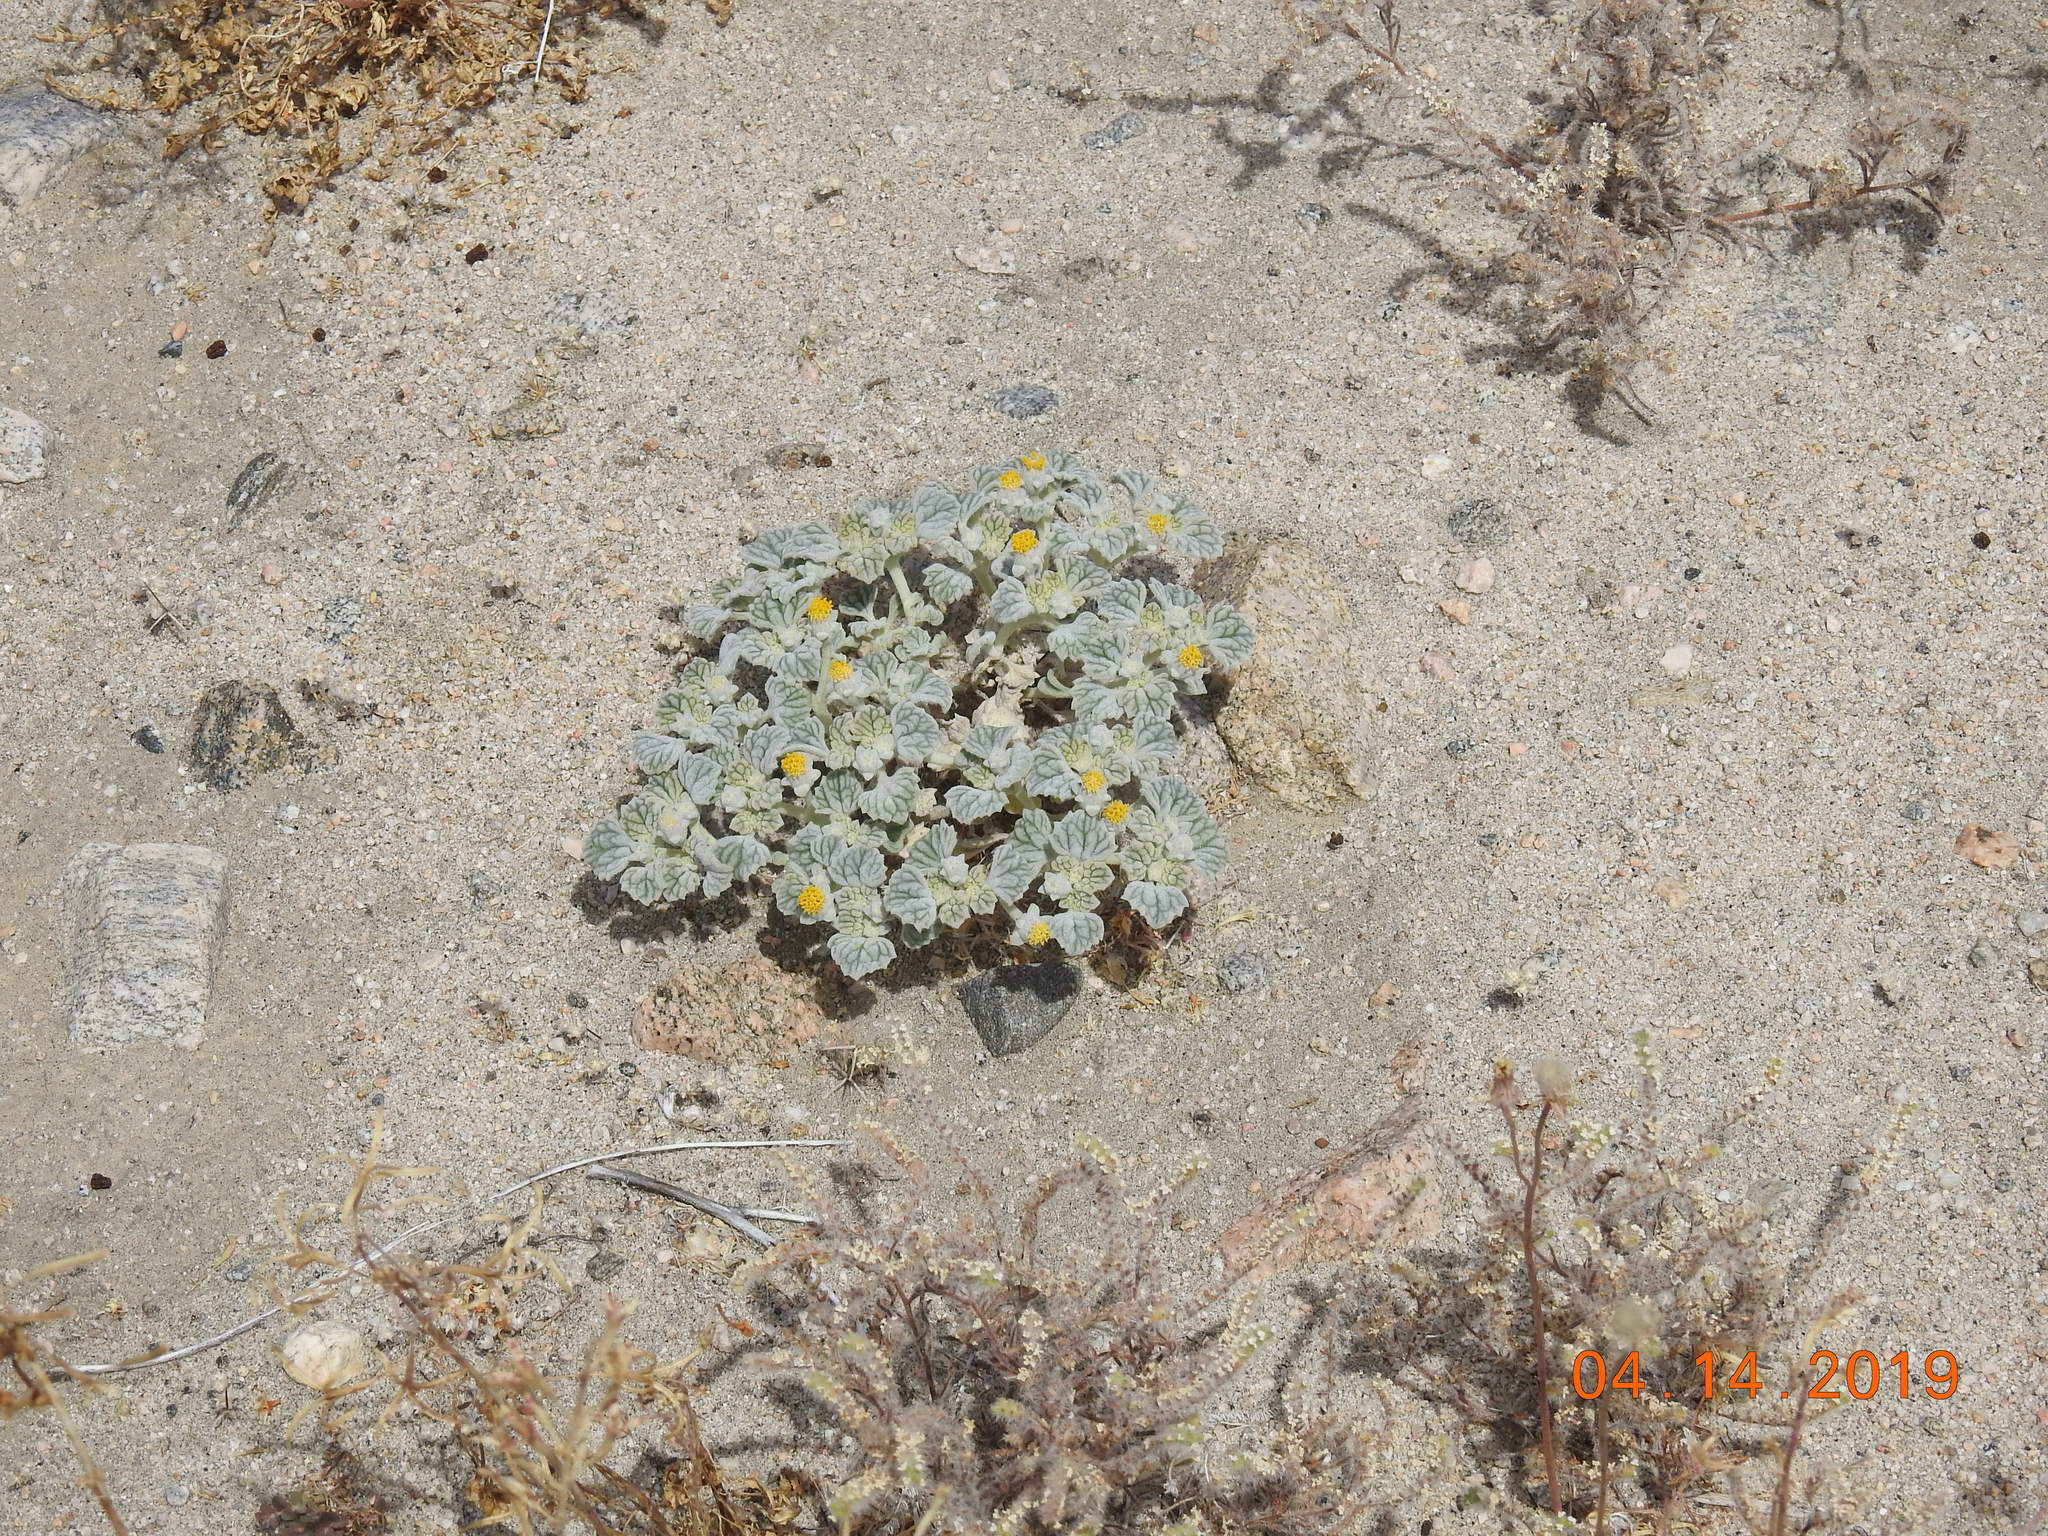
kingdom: Plantae
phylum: Tracheophyta
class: Magnoliopsida
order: Asterales
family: Asteraceae
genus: Psathyrotes
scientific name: Psathyrotes ramosissima
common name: Turtleback
